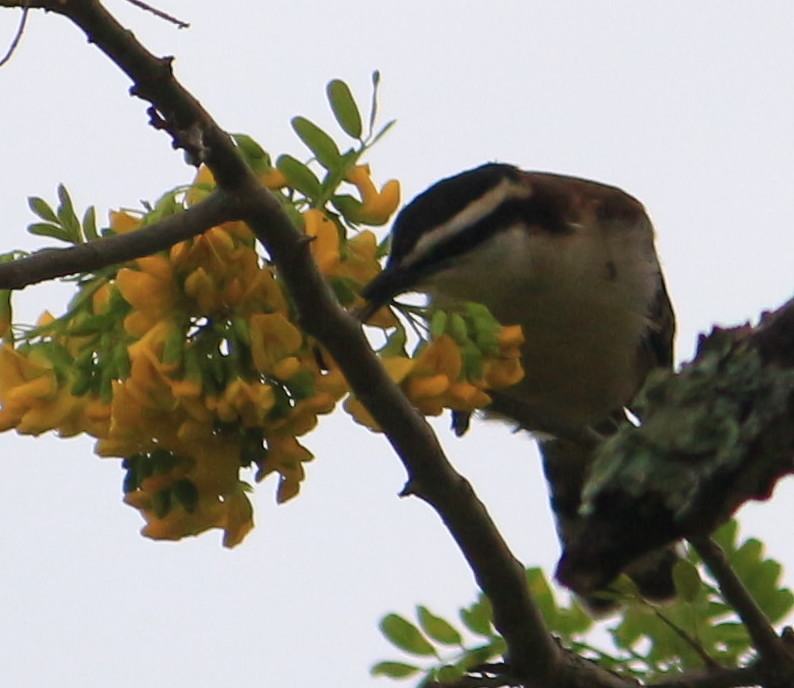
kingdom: Animalia
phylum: Chordata
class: Aves
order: Passeriformes
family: Troglodytidae
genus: Campylorhynchus
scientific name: Campylorhynchus rufinucha
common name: Rufous-naped wren
